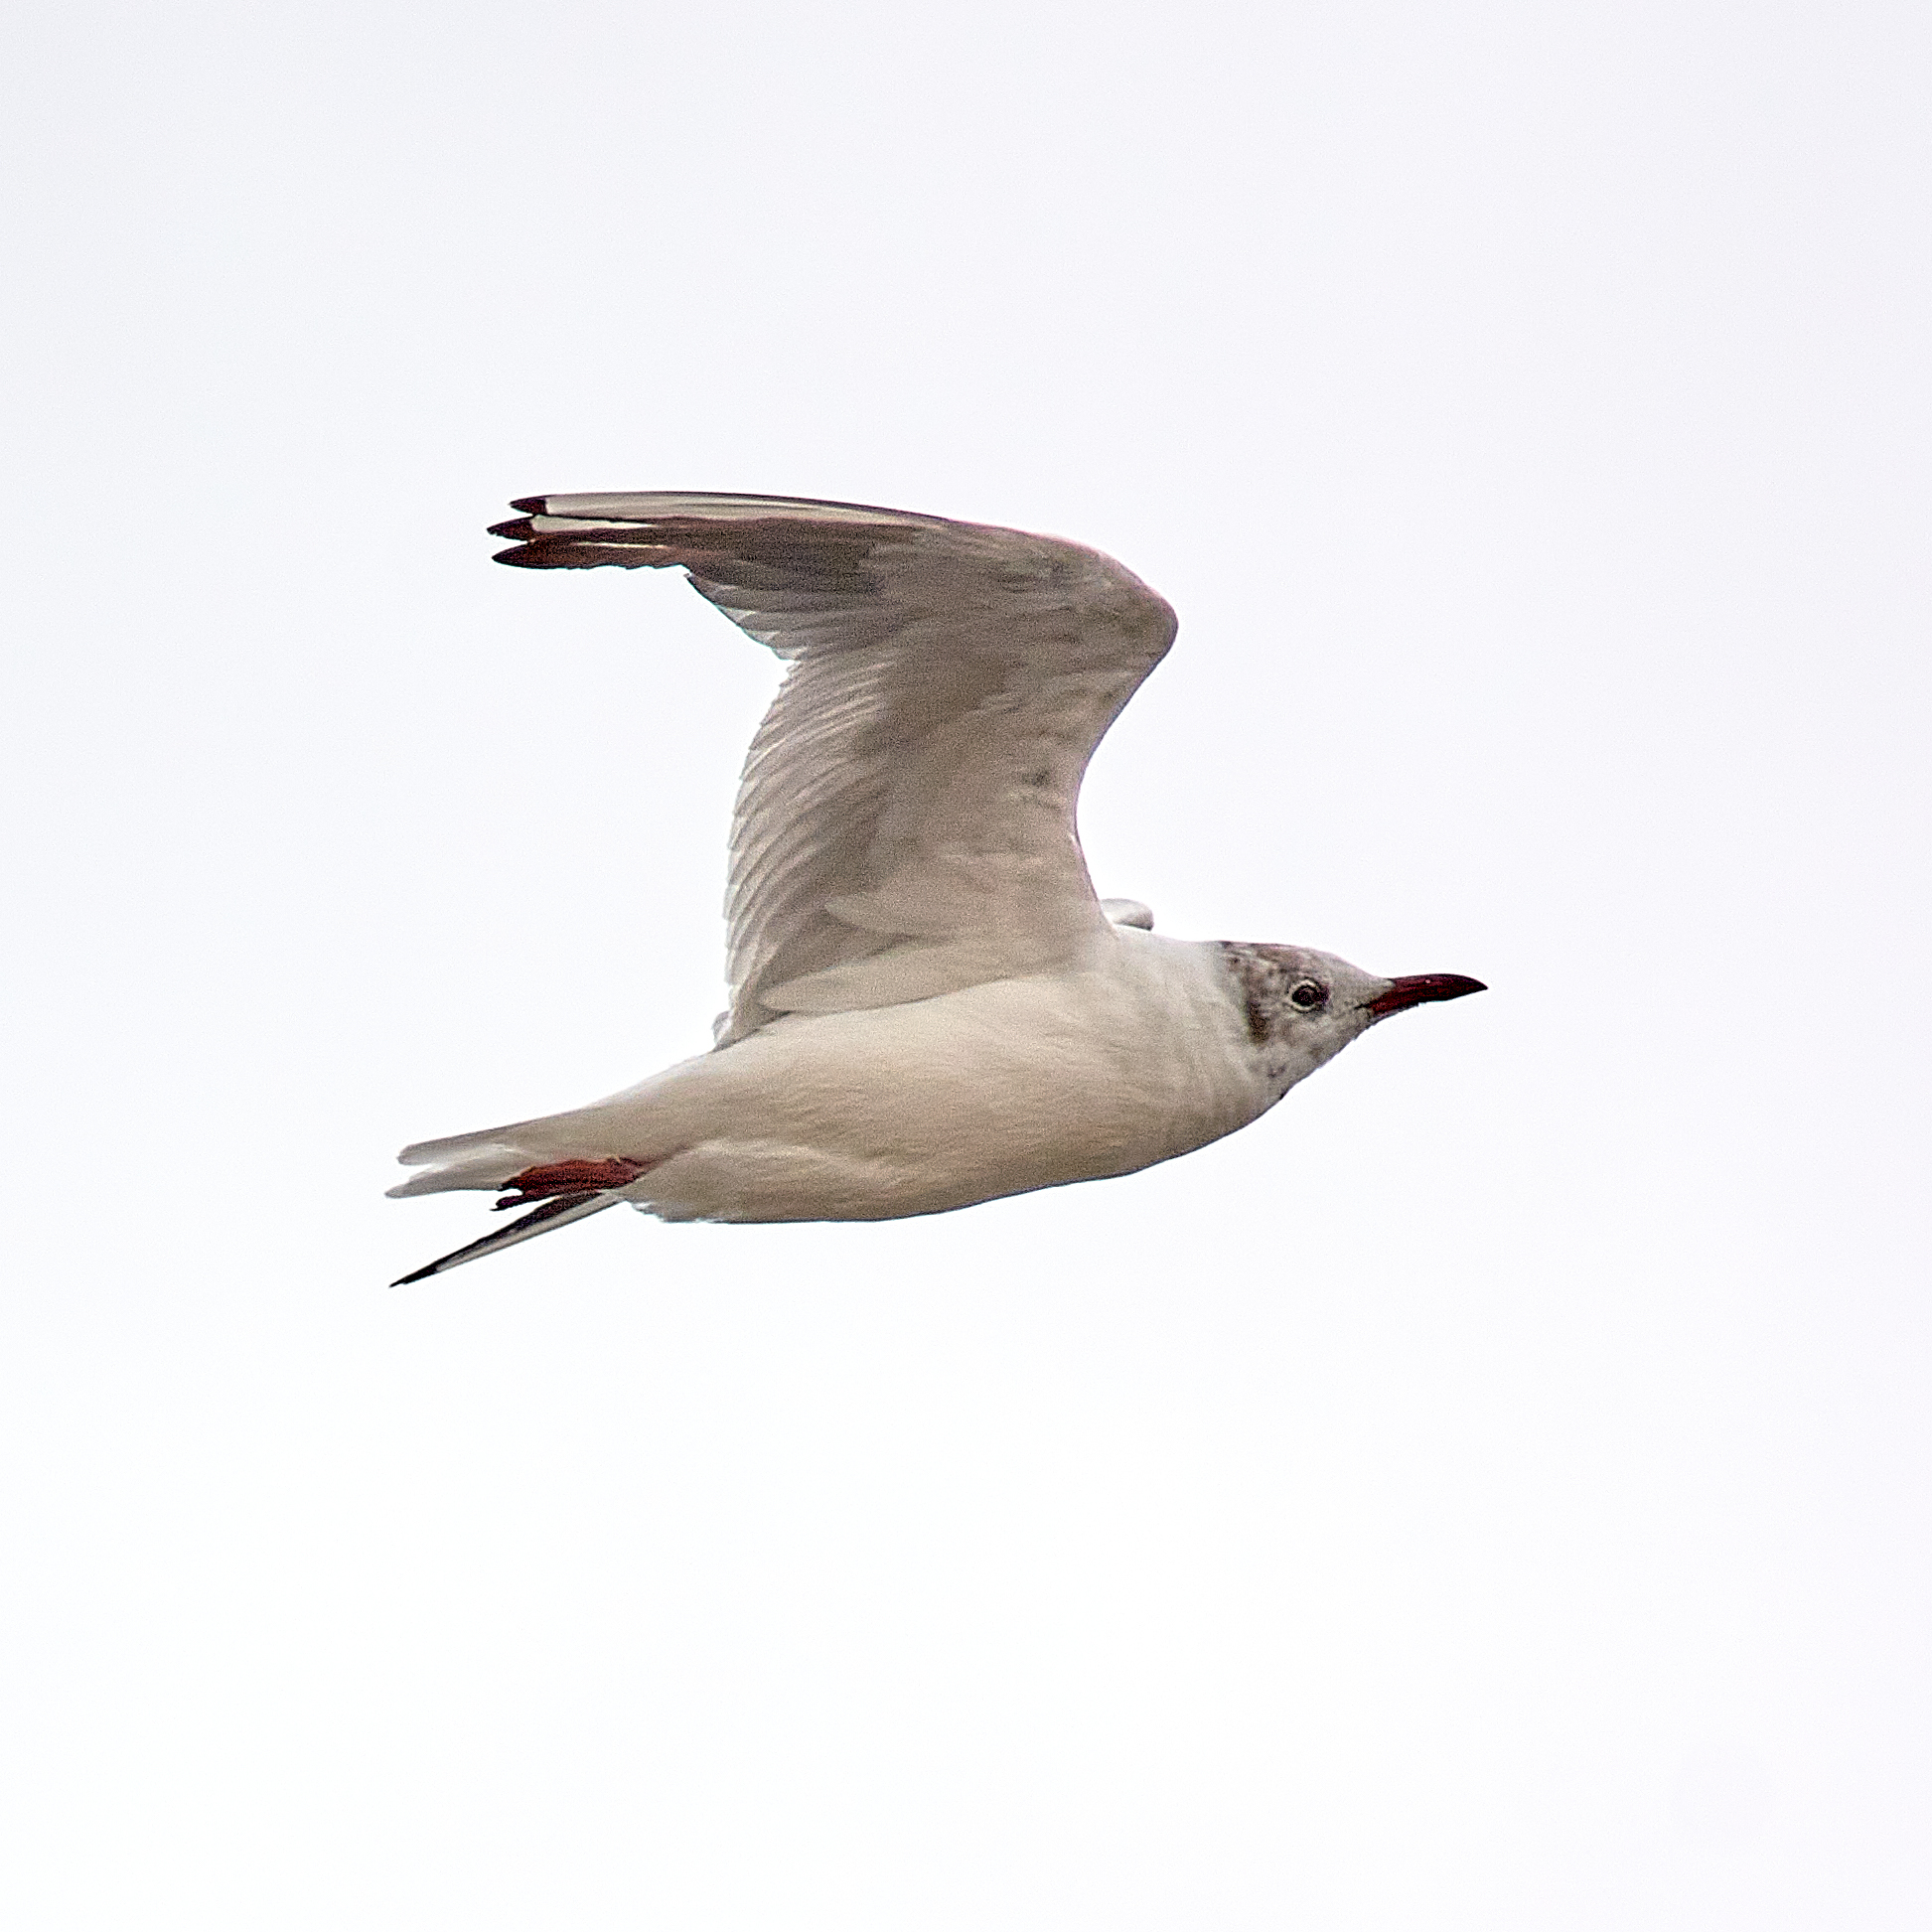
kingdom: Animalia
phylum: Chordata
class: Aves
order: Charadriiformes
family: Laridae
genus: Chroicocephalus
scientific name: Chroicocephalus ridibundus
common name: Black-headed gull
